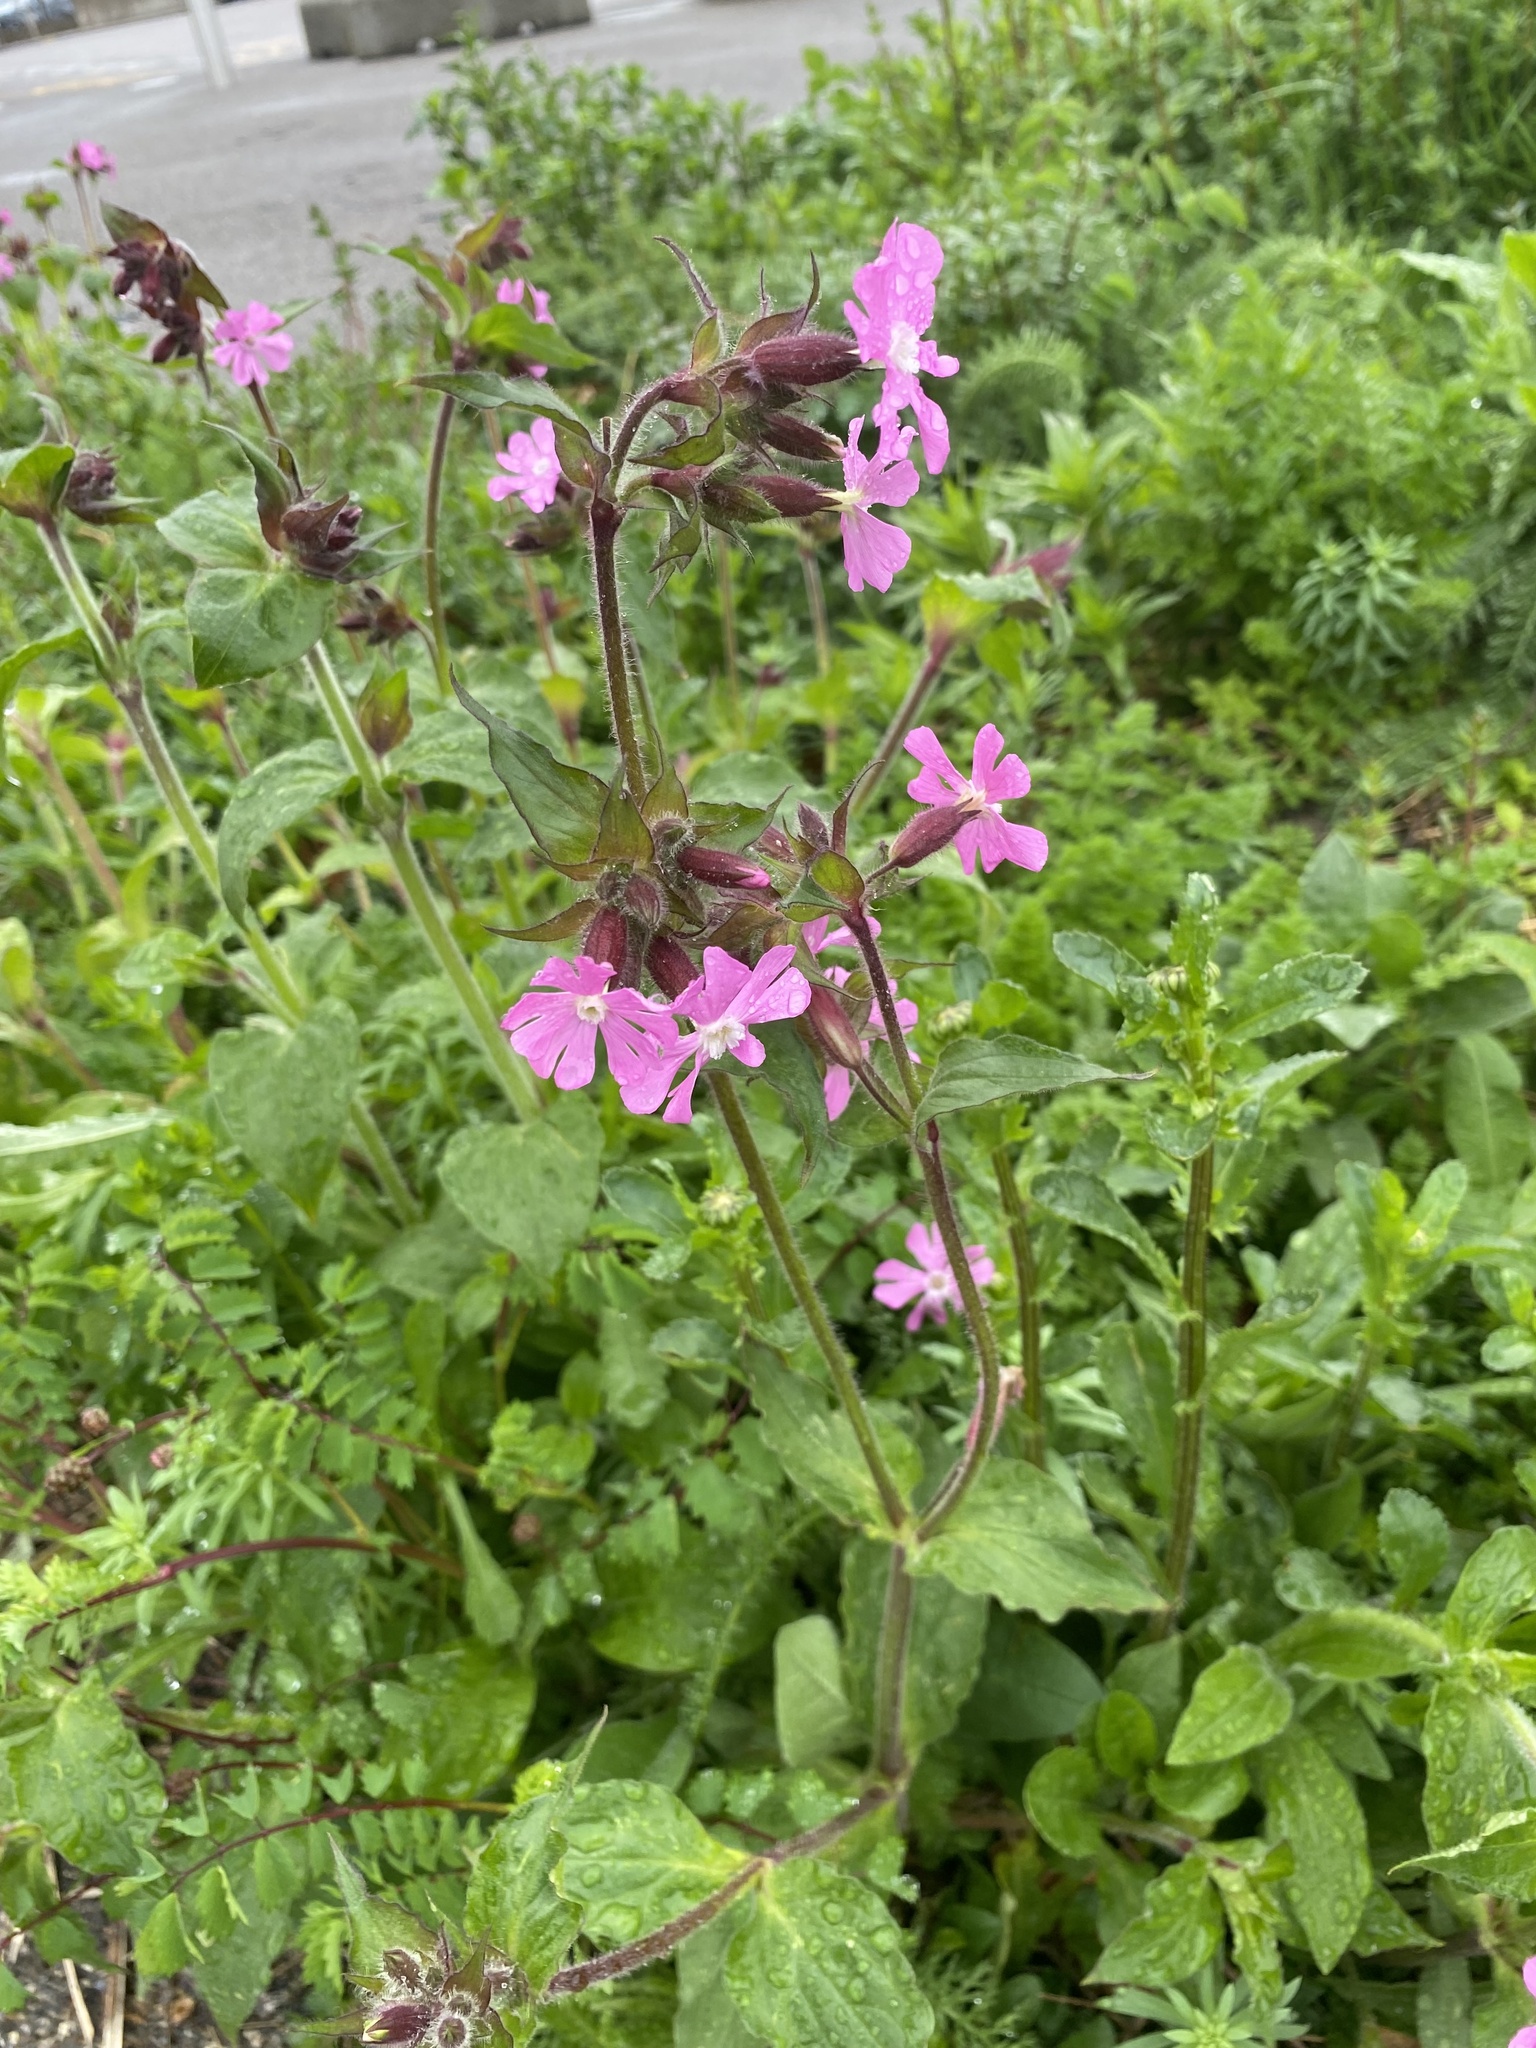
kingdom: Plantae
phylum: Tracheophyta
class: Magnoliopsida
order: Caryophyllales
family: Caryophyllaceae
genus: Silene
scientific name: Silene dioica
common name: Red campion
